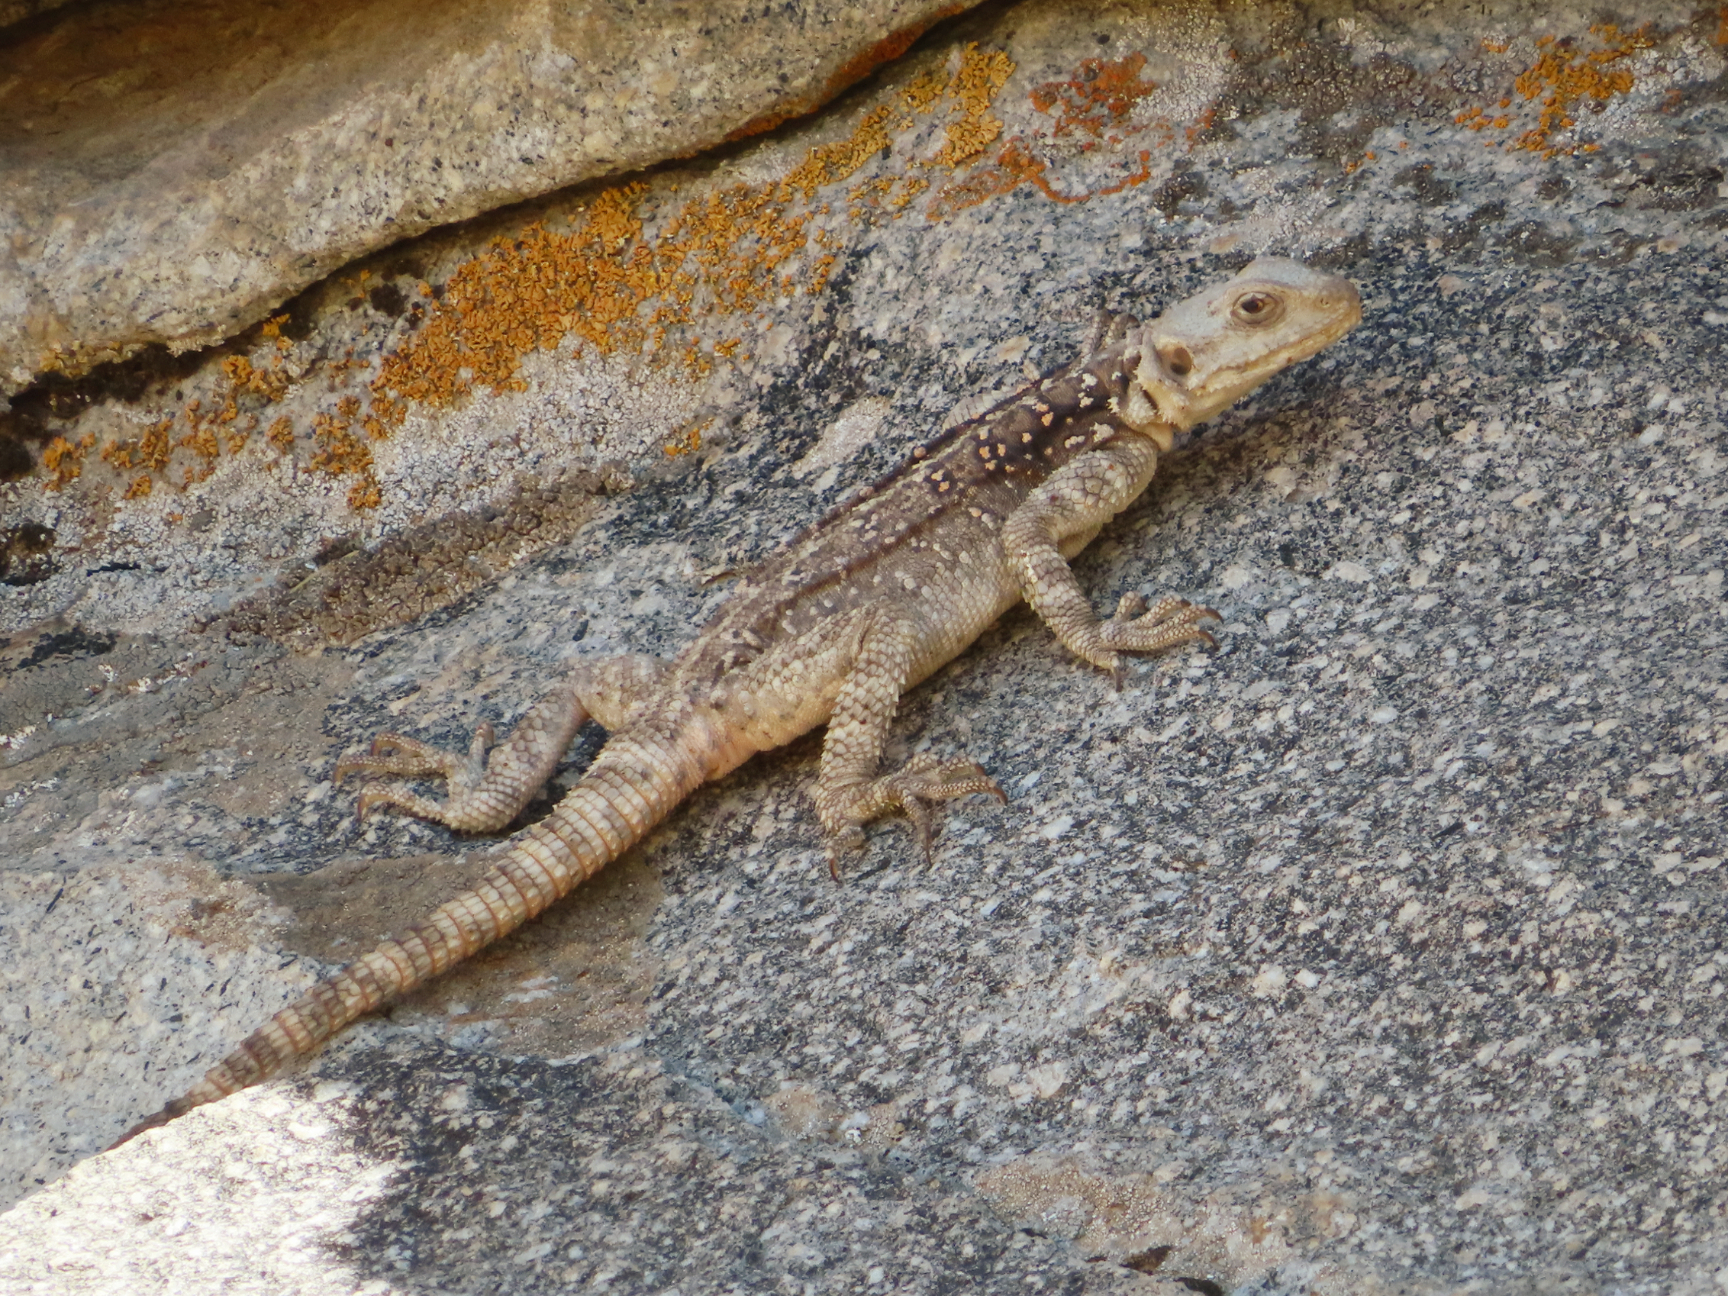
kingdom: Animalia
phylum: Chordata
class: Squamata
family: Agamidae
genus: Paralaudakia
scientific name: Paralaudakia caucasia
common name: Caucasian agama
